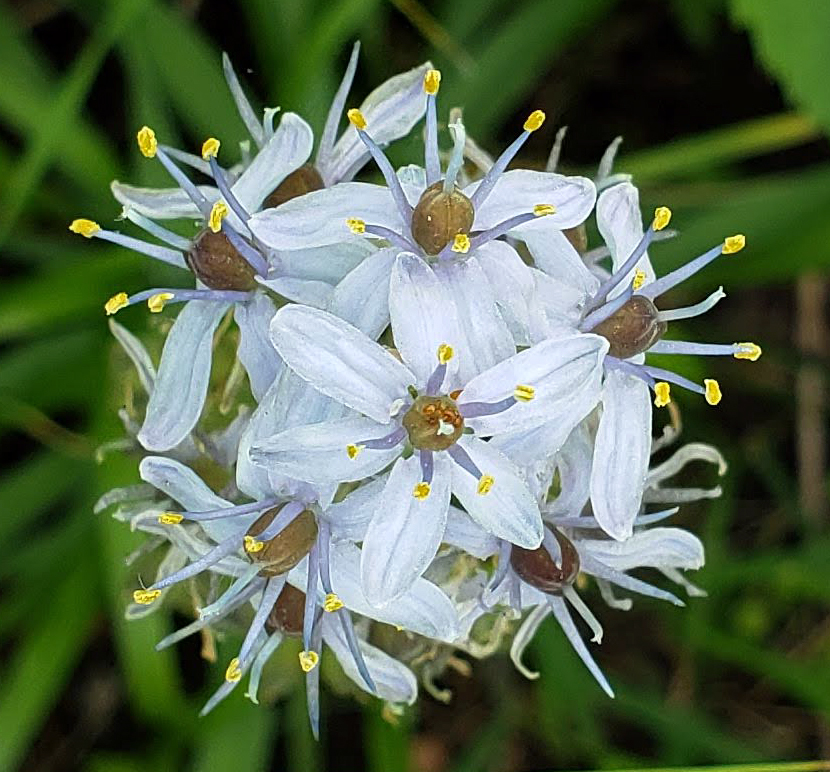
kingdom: Plantae
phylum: Tracheophyta
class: Liliopsida
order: Asparagales
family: Asparagaceae
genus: Camassia
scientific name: Camassia scilloides
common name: Wild hyacinth
